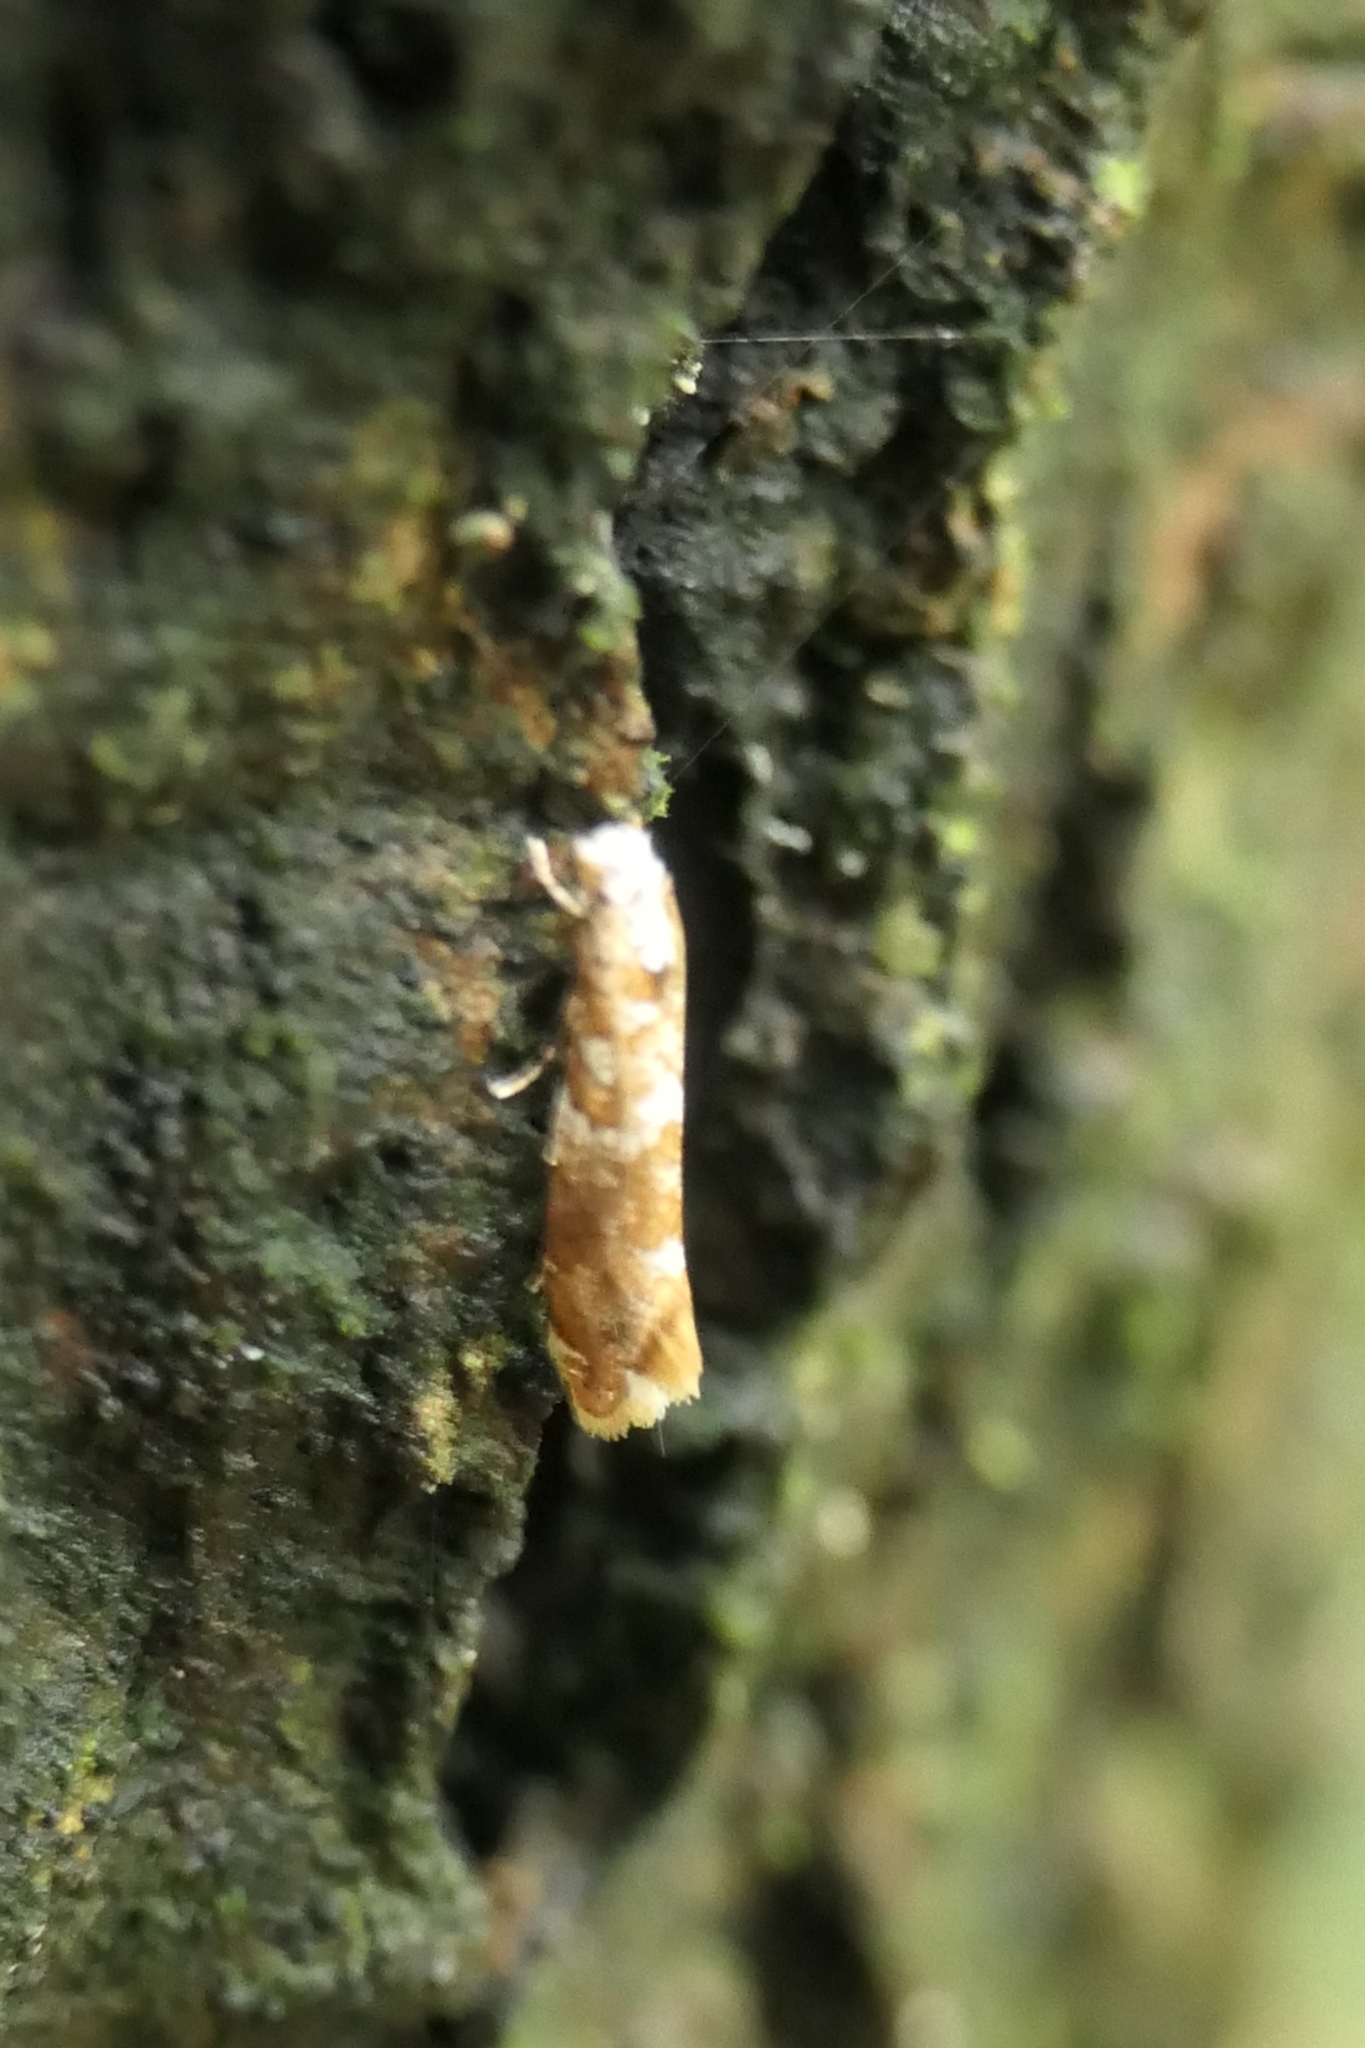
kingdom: Animalia
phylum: Arthropoda
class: Insecta
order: Lepidoptera
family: Tineidae
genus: Eschatotypa
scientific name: Eschatotypa derogatella
